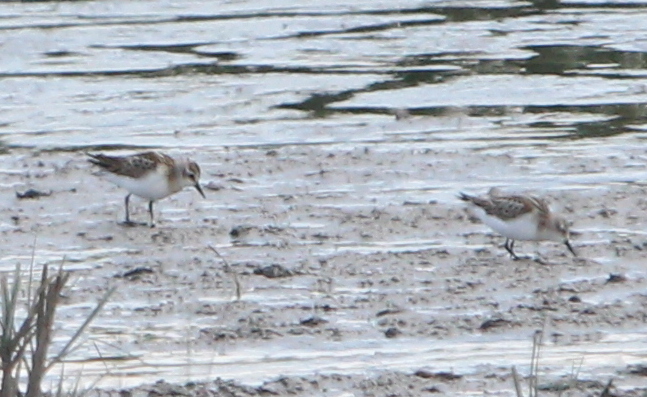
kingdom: Animalia
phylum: Chordata
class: Aves
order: Charadriiformes
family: Scolopacidae
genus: Calidris
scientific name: Calidris minuta
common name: Little stint
